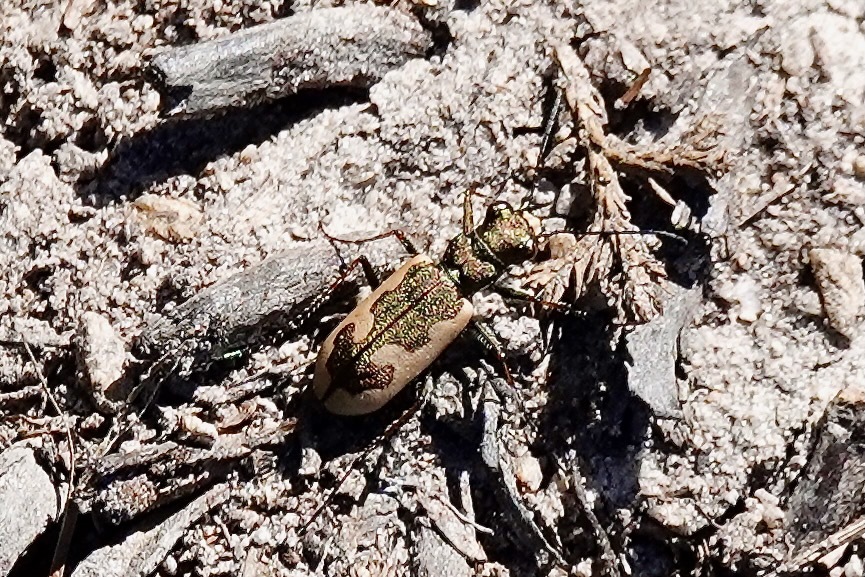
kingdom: Animalia
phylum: Arthropoda
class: Insecta
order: Coleoptera
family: Carabidae
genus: Neocicindela
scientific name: Neocicindela latecincta
